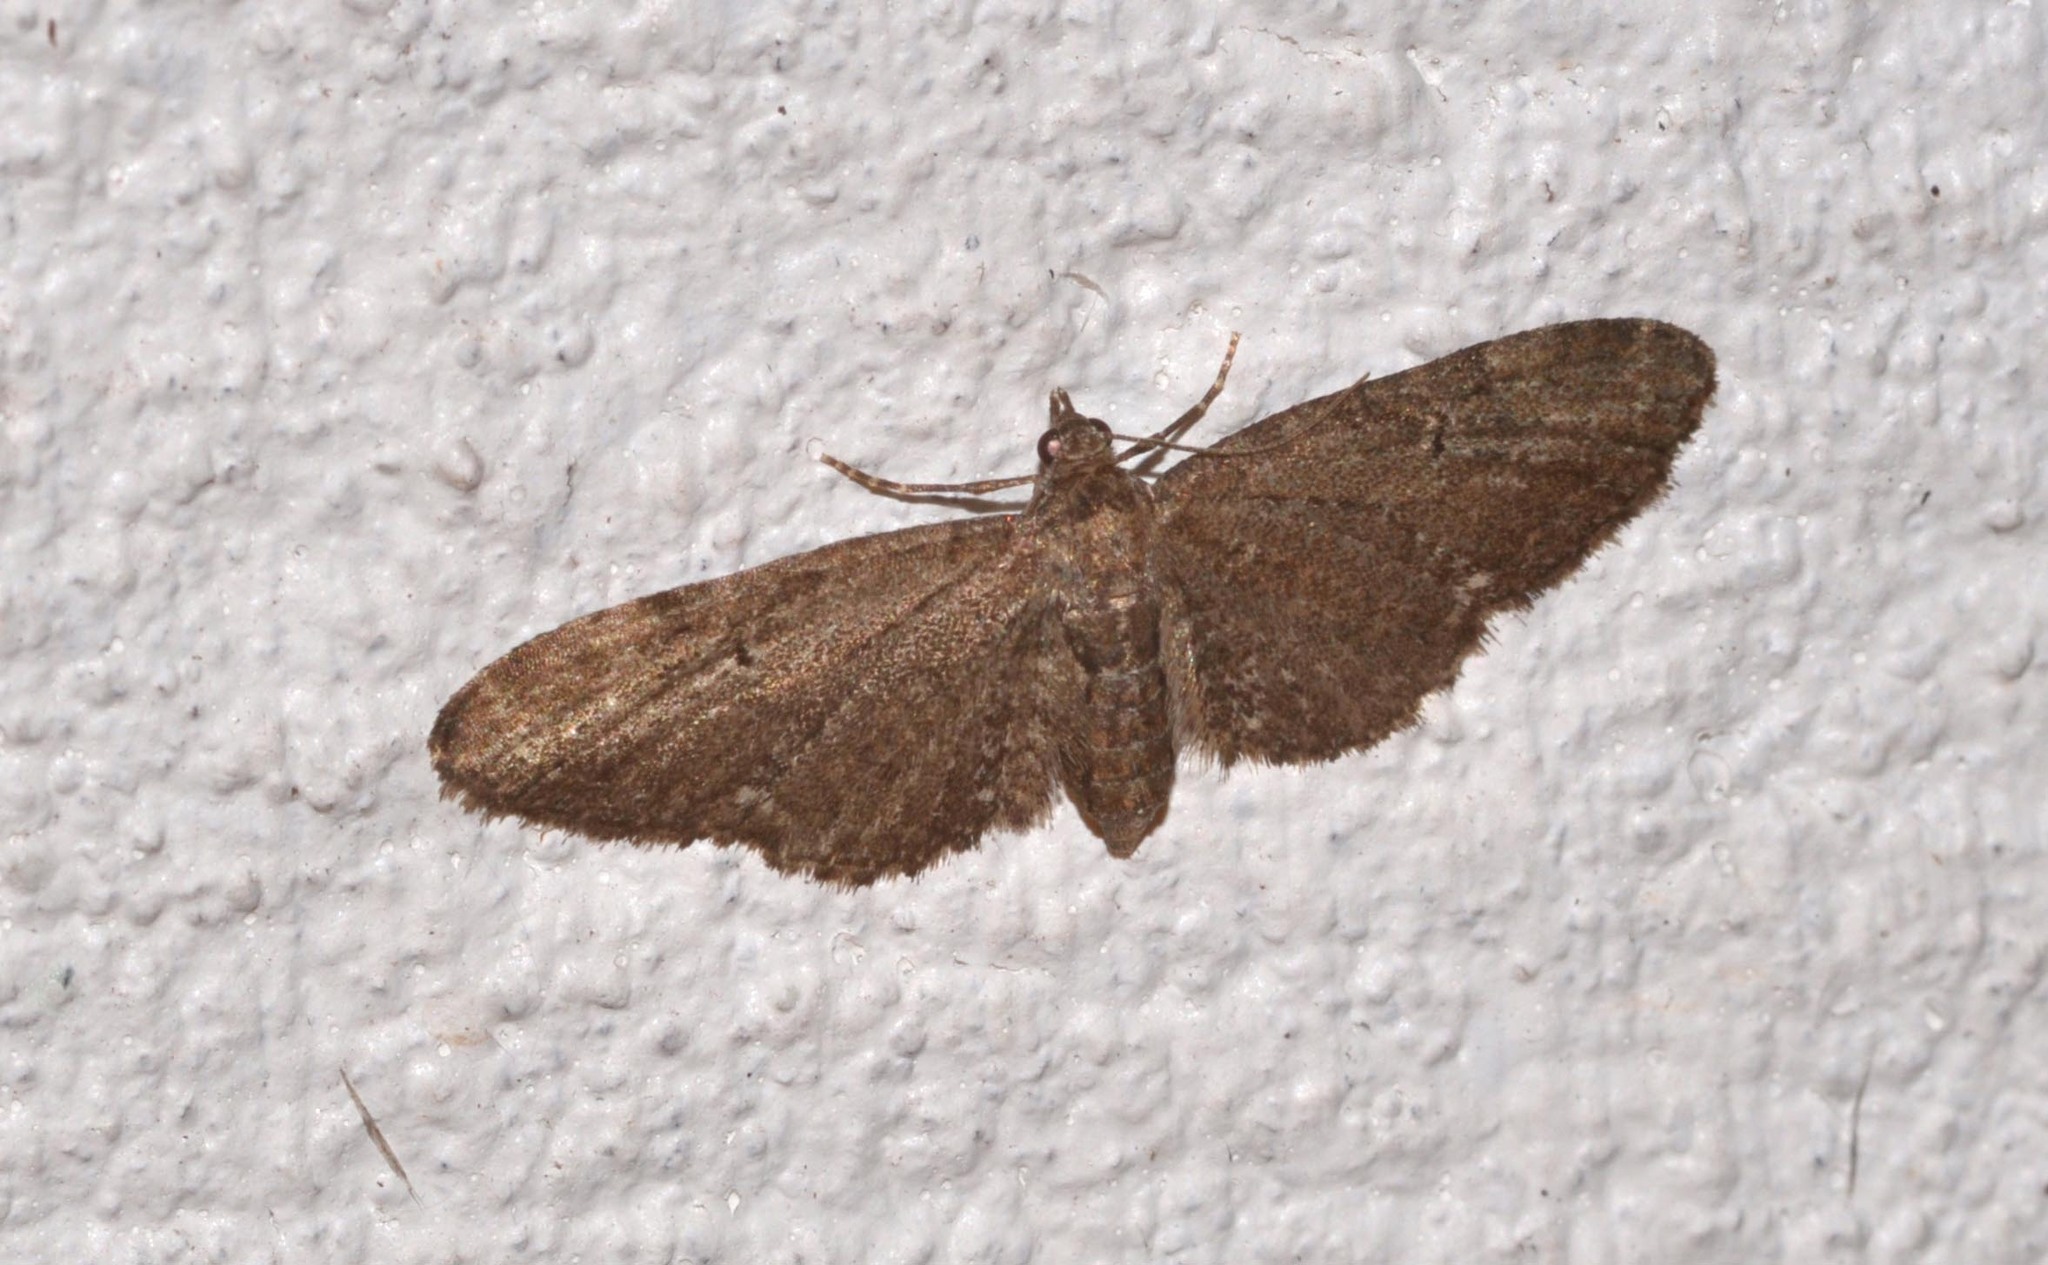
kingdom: Animalia
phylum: Arthropoda
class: Insecta
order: Lepidoptera
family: Geometridae
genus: Eupithecia
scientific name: Eupithecia vulgata
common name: Common pug
